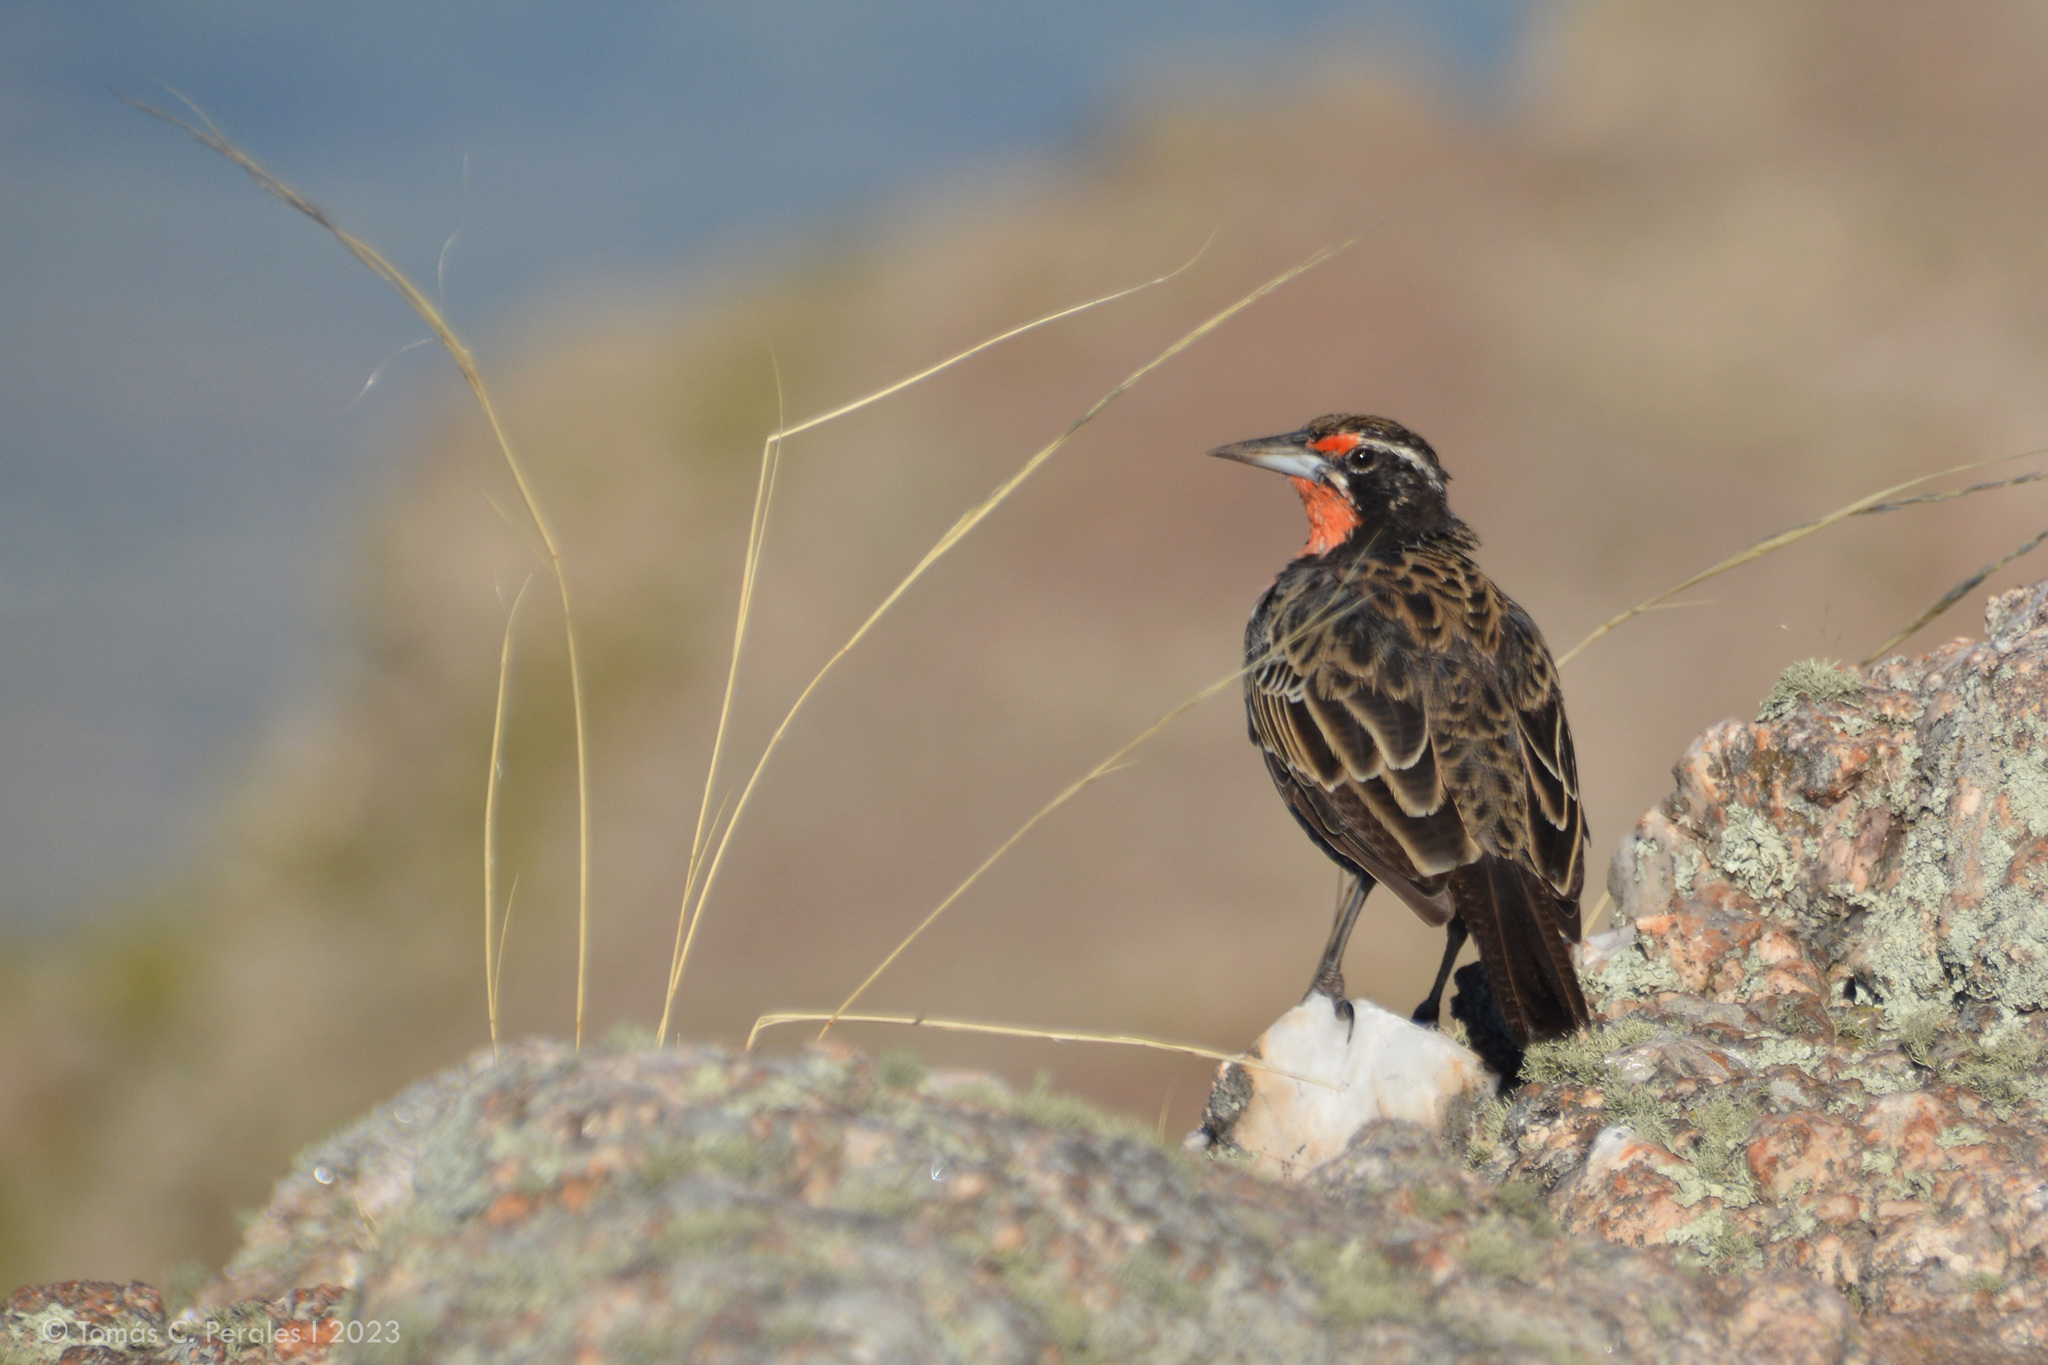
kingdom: Animalia
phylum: Chordata
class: Aves
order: Passeriformes
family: Icteridae
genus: Sturnella
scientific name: Sturnella loyca
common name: Long-tailed meadowlark
